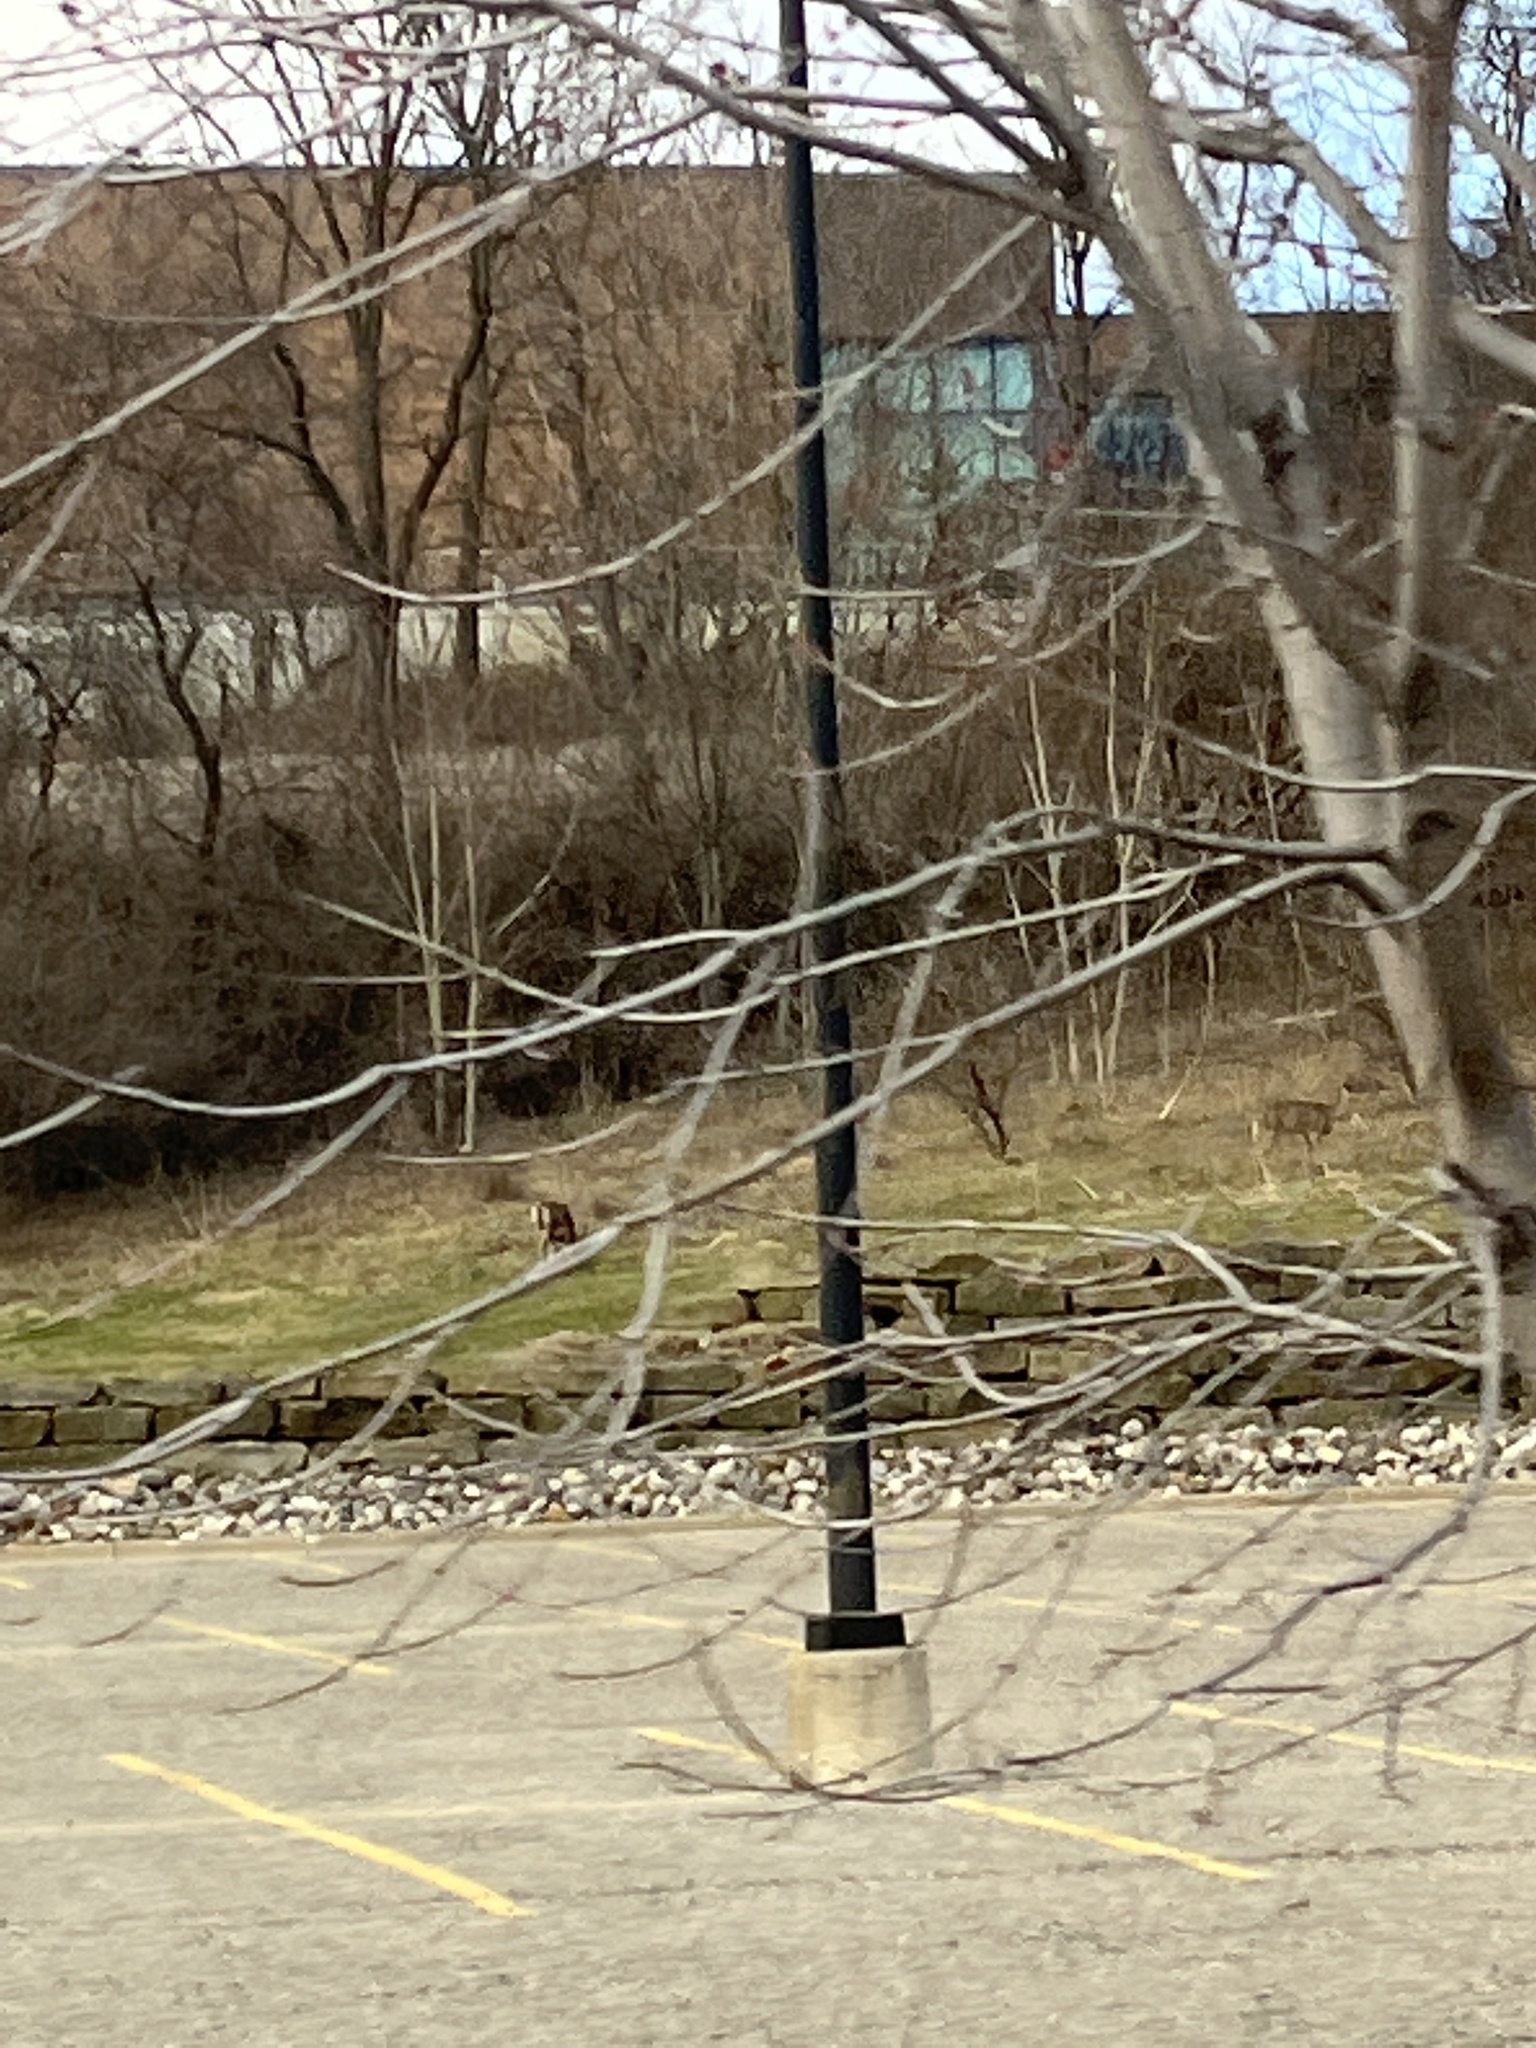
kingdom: Animalia
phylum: Chordata
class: Mammalia
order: Artiodactyla
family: Cervidae
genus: Odocoileus
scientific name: Odocoileus virginianus
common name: White-tailed deer
